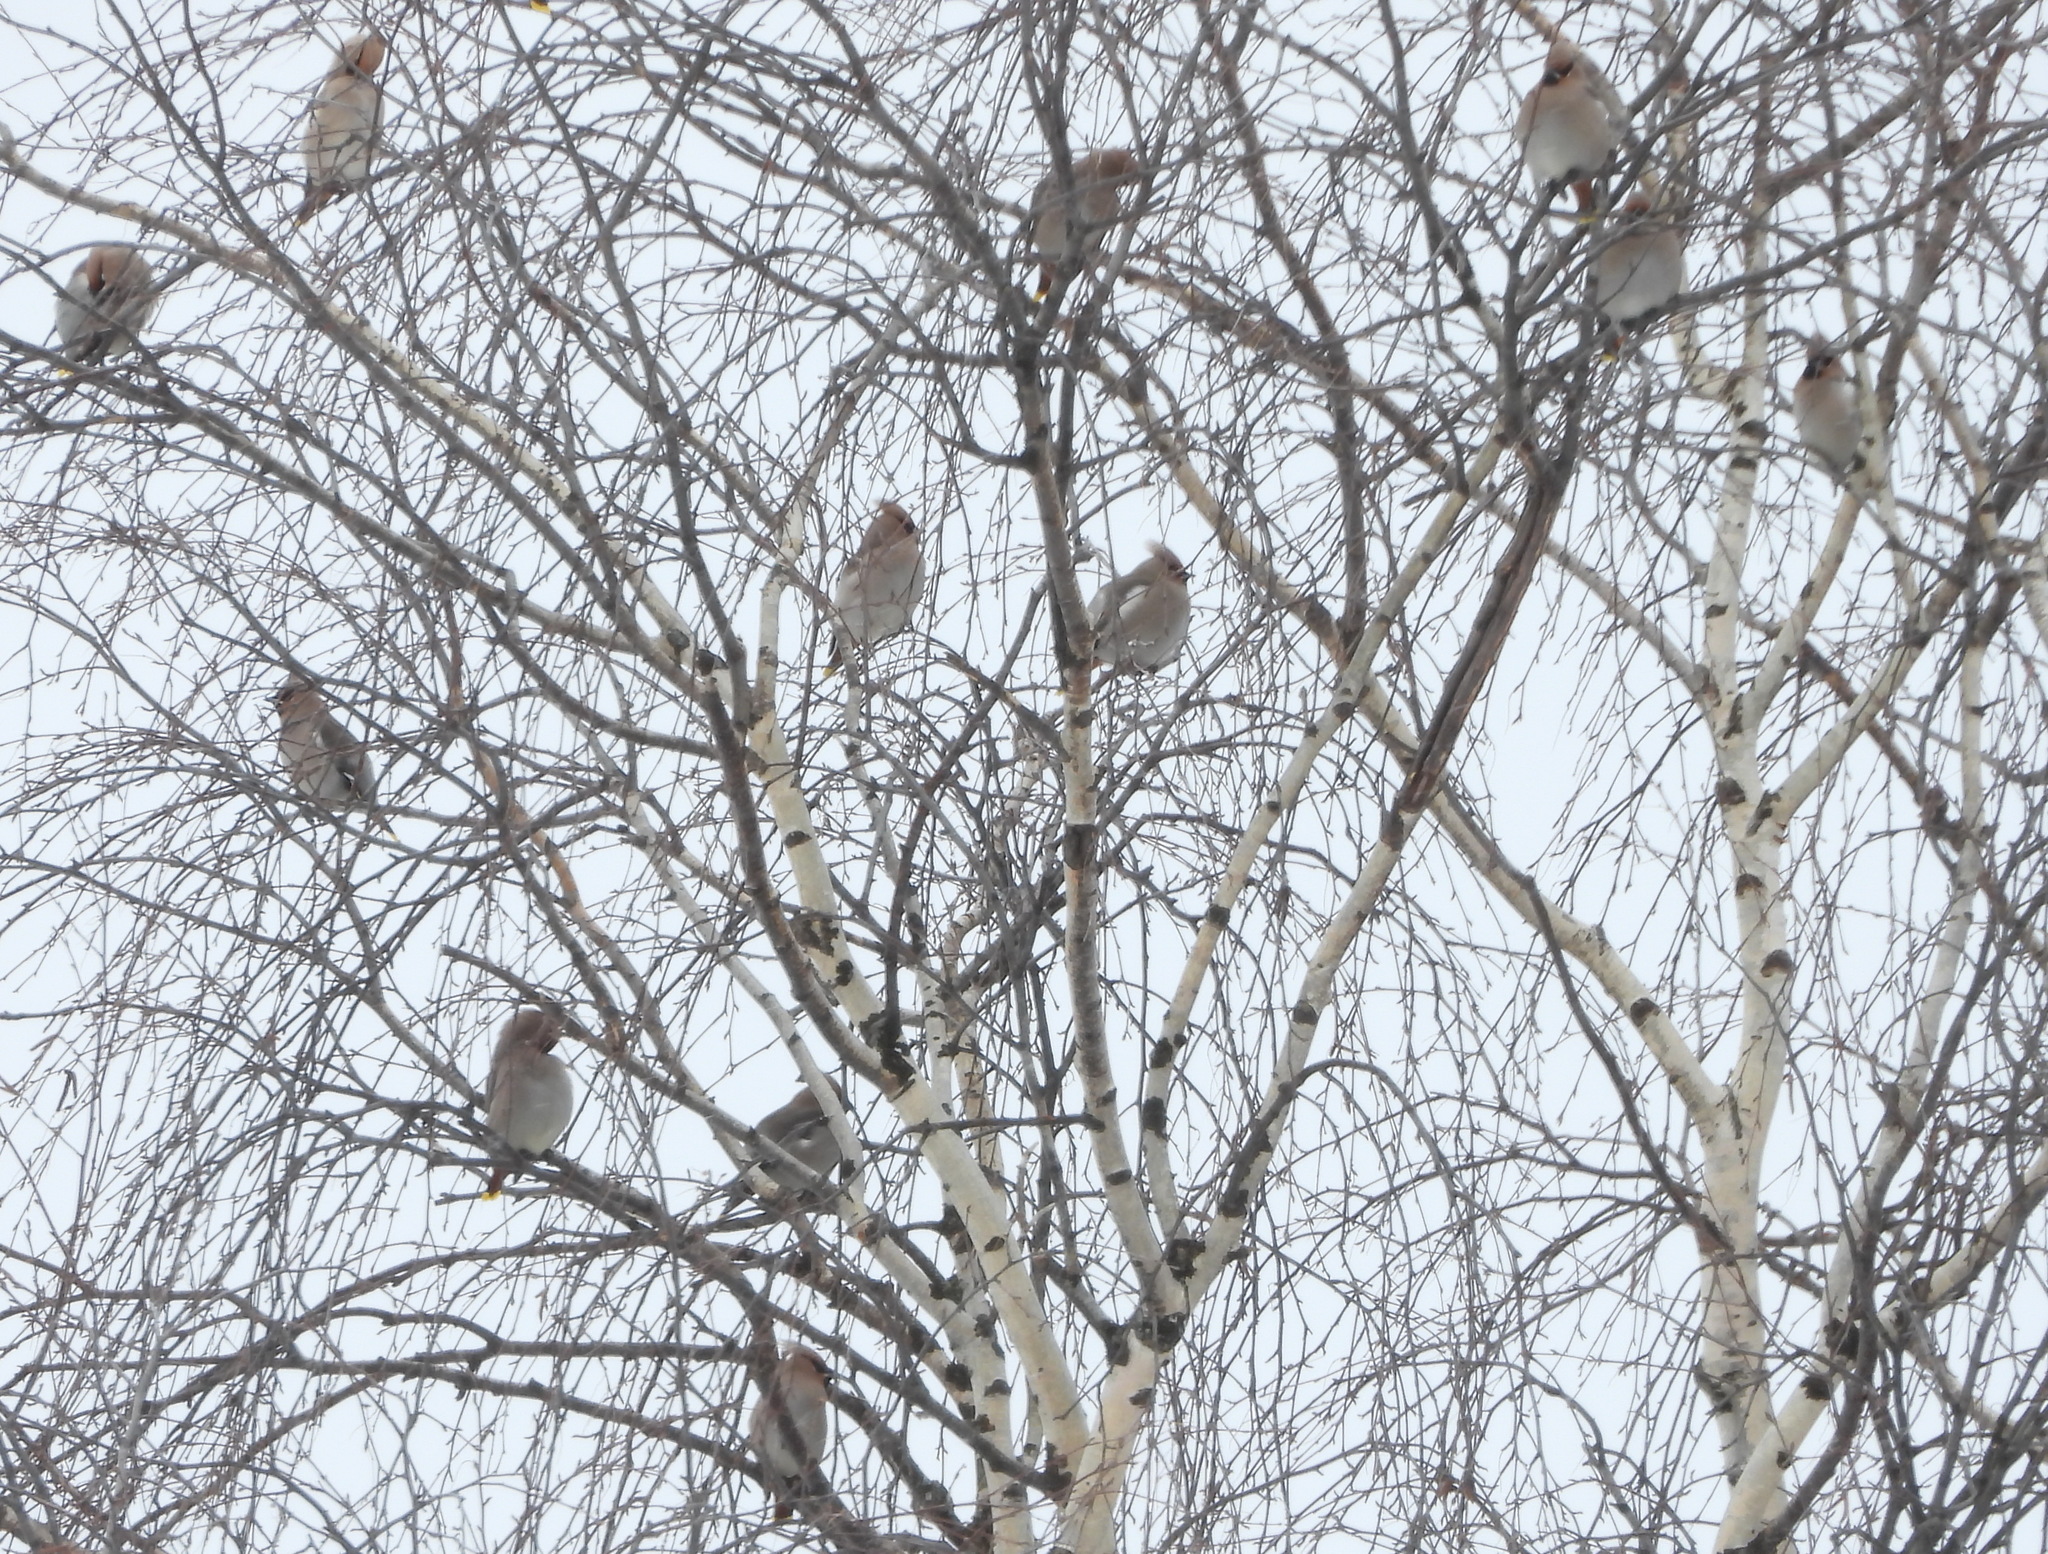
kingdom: Animalia
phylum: Chordata
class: Aves
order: Passeriformes
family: Bombycillidae
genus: Bombycilla
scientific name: Bombycilla garrulus
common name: Bohemian waxwing
